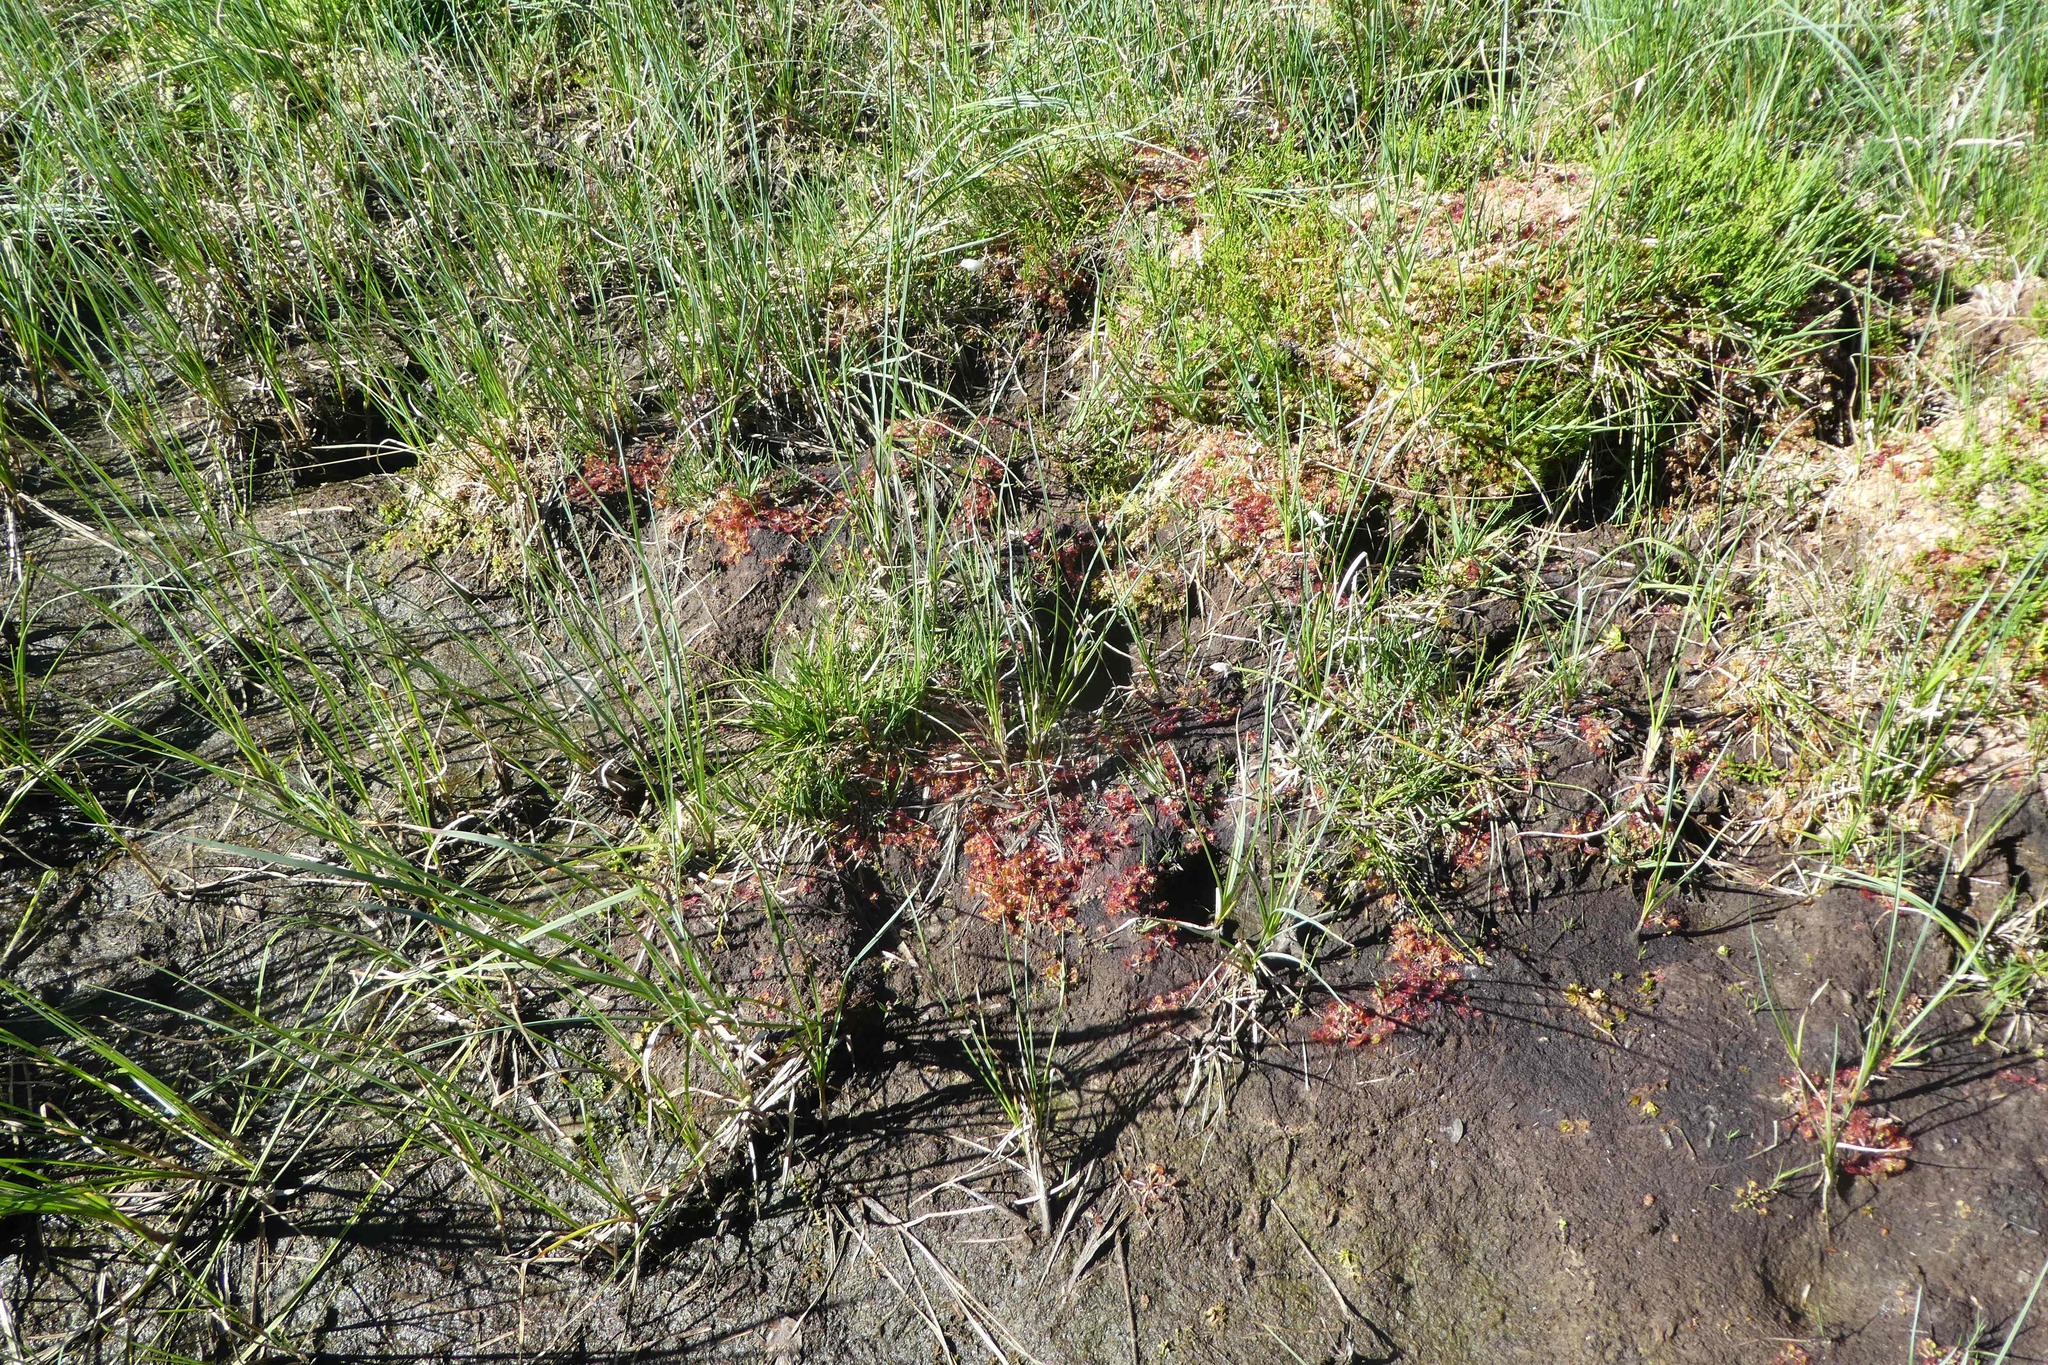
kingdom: Plantae
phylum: Tracheophyta
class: Magnoliopsida
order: Caryophyllales
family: Droseraceae
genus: Drosera
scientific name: Drosera rotundifolia
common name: Round-leaved sundew
